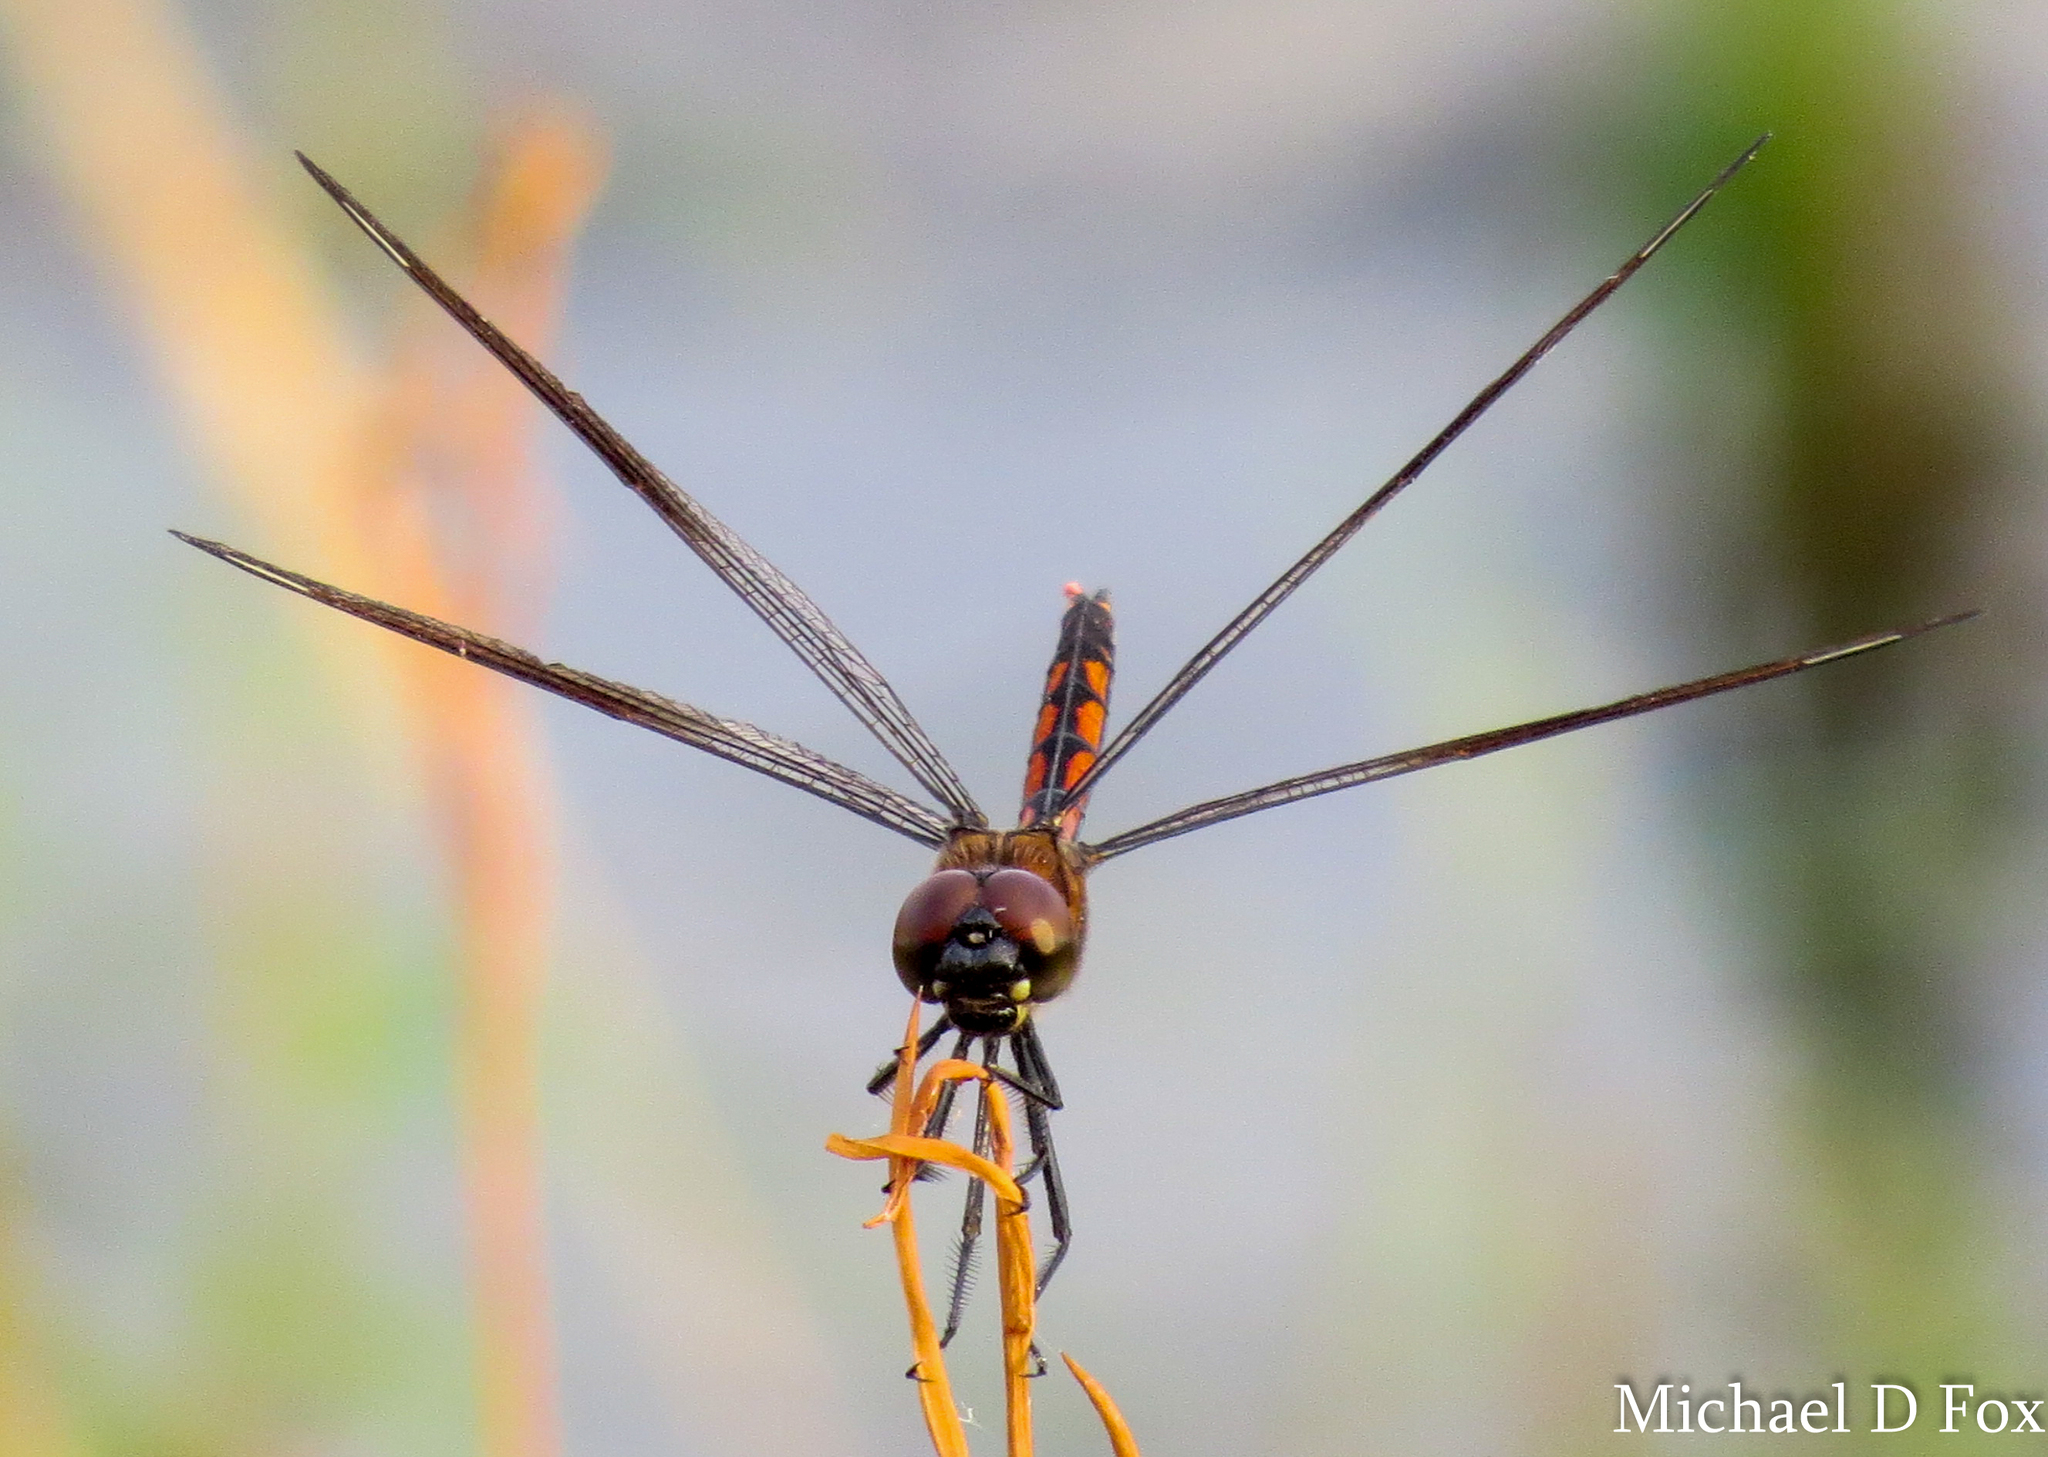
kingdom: Animalia
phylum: Arthropoda
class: Insecta
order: Odonata
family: Libellulidae
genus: Brachymesia
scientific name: Brachymesia gravida
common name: Four-spotted pennant
